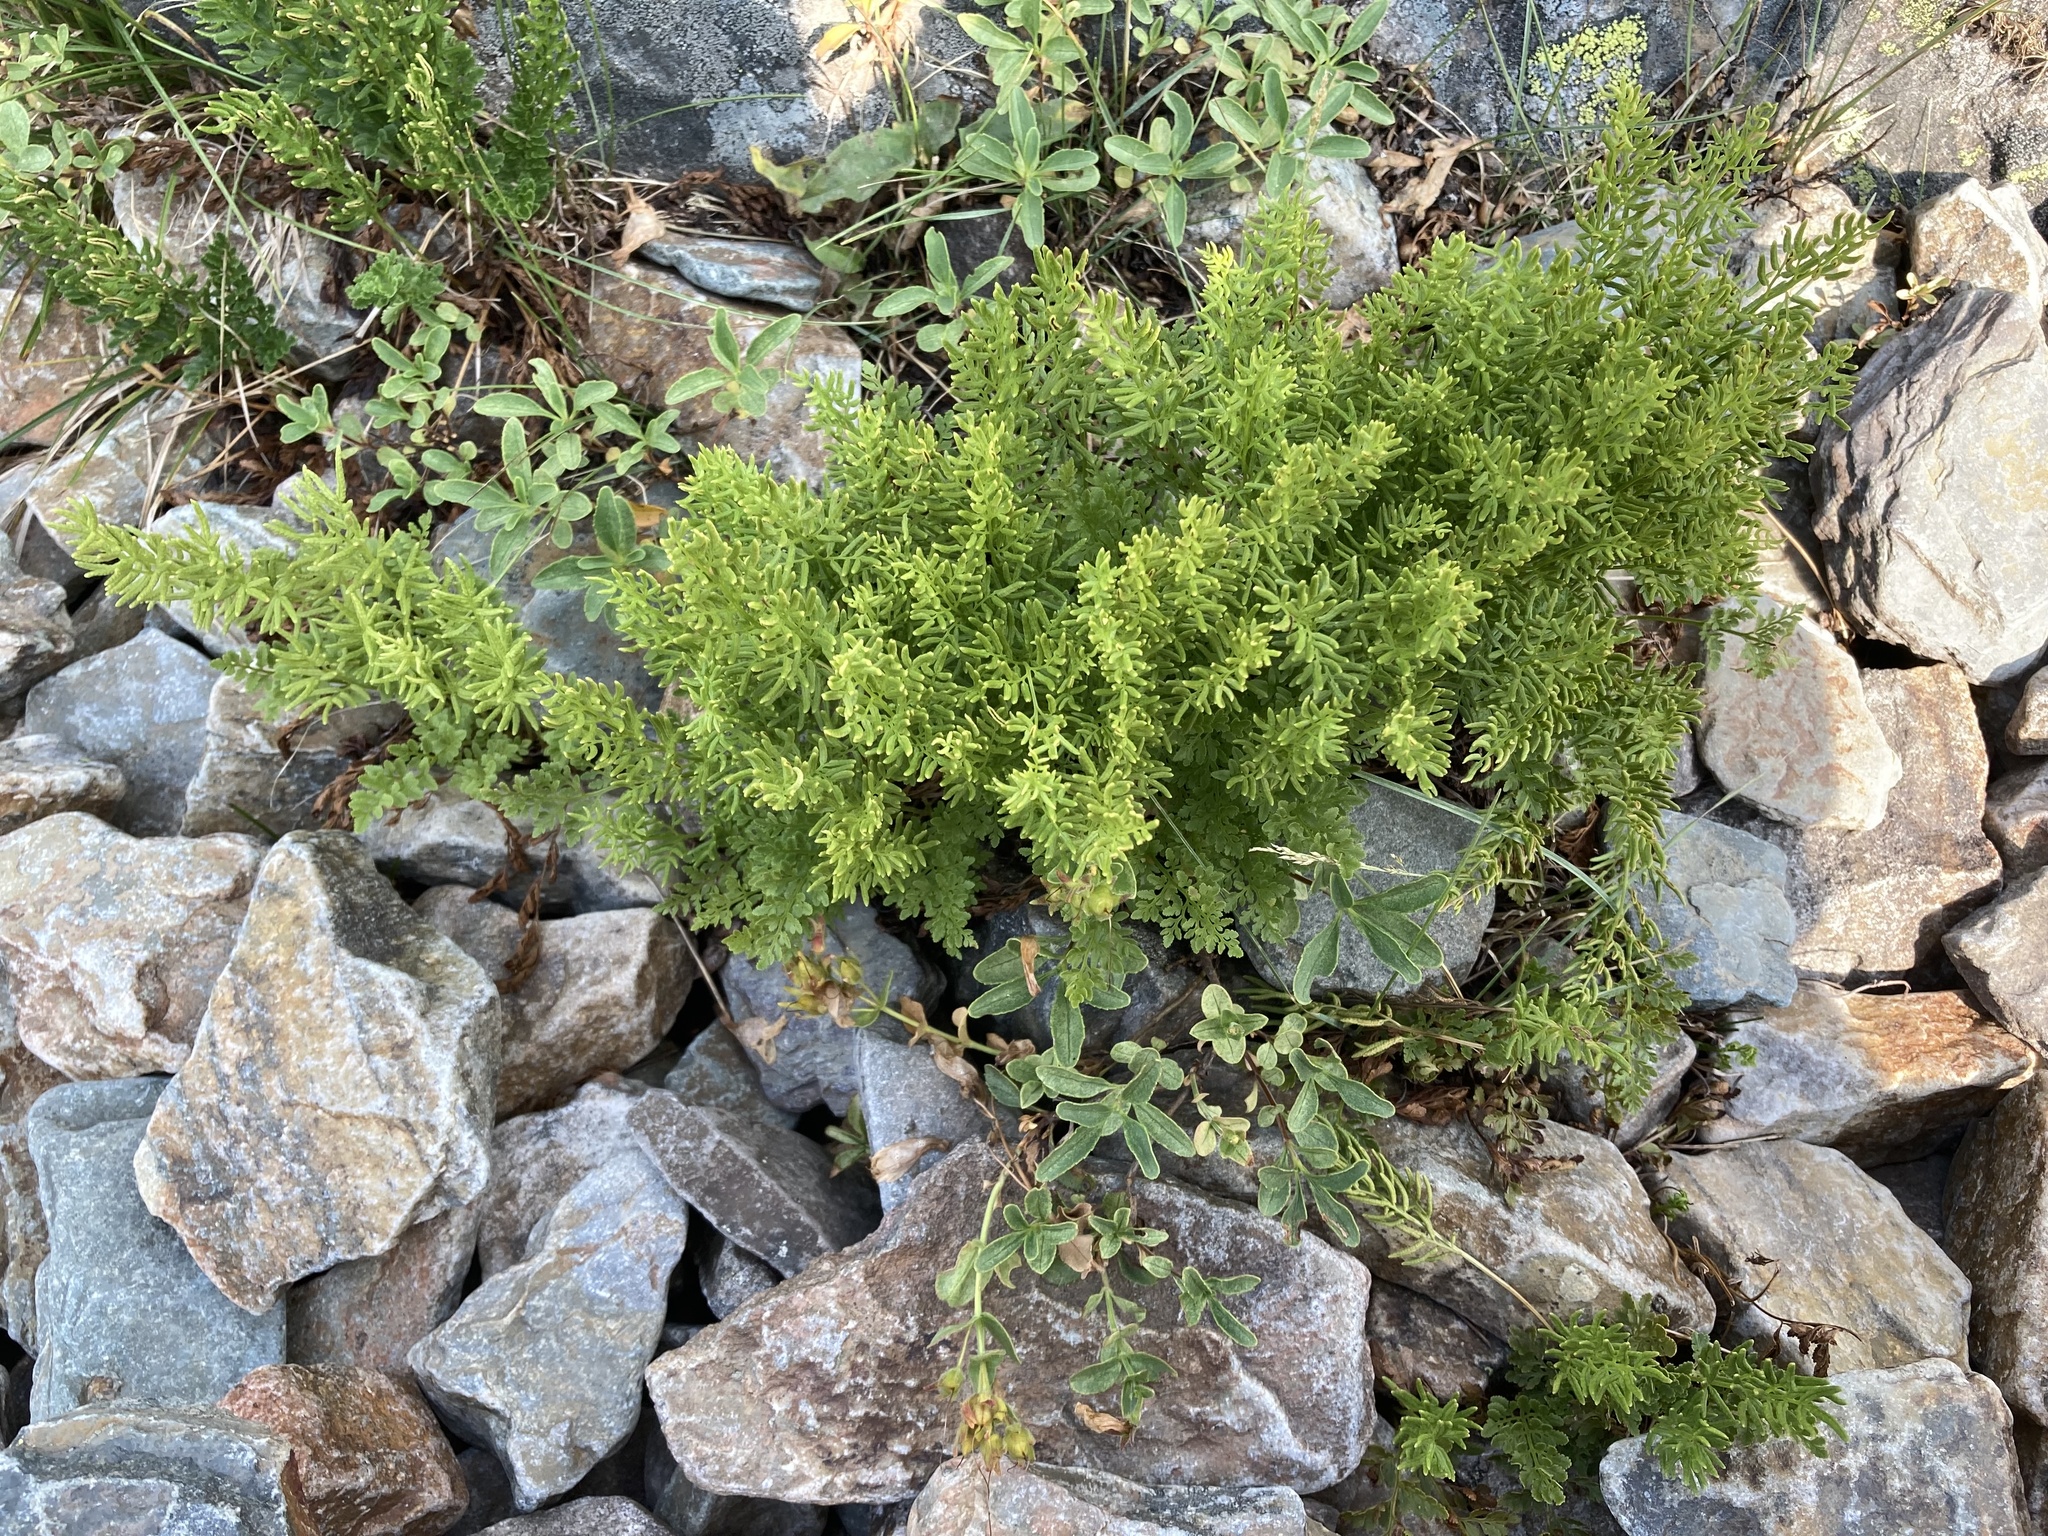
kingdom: Plantae
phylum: Tracheophyta
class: Polypodiopsida
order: Polypodiales
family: Pteridaceae
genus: Cryptogramma
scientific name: Cryptogramma acrostichoides
